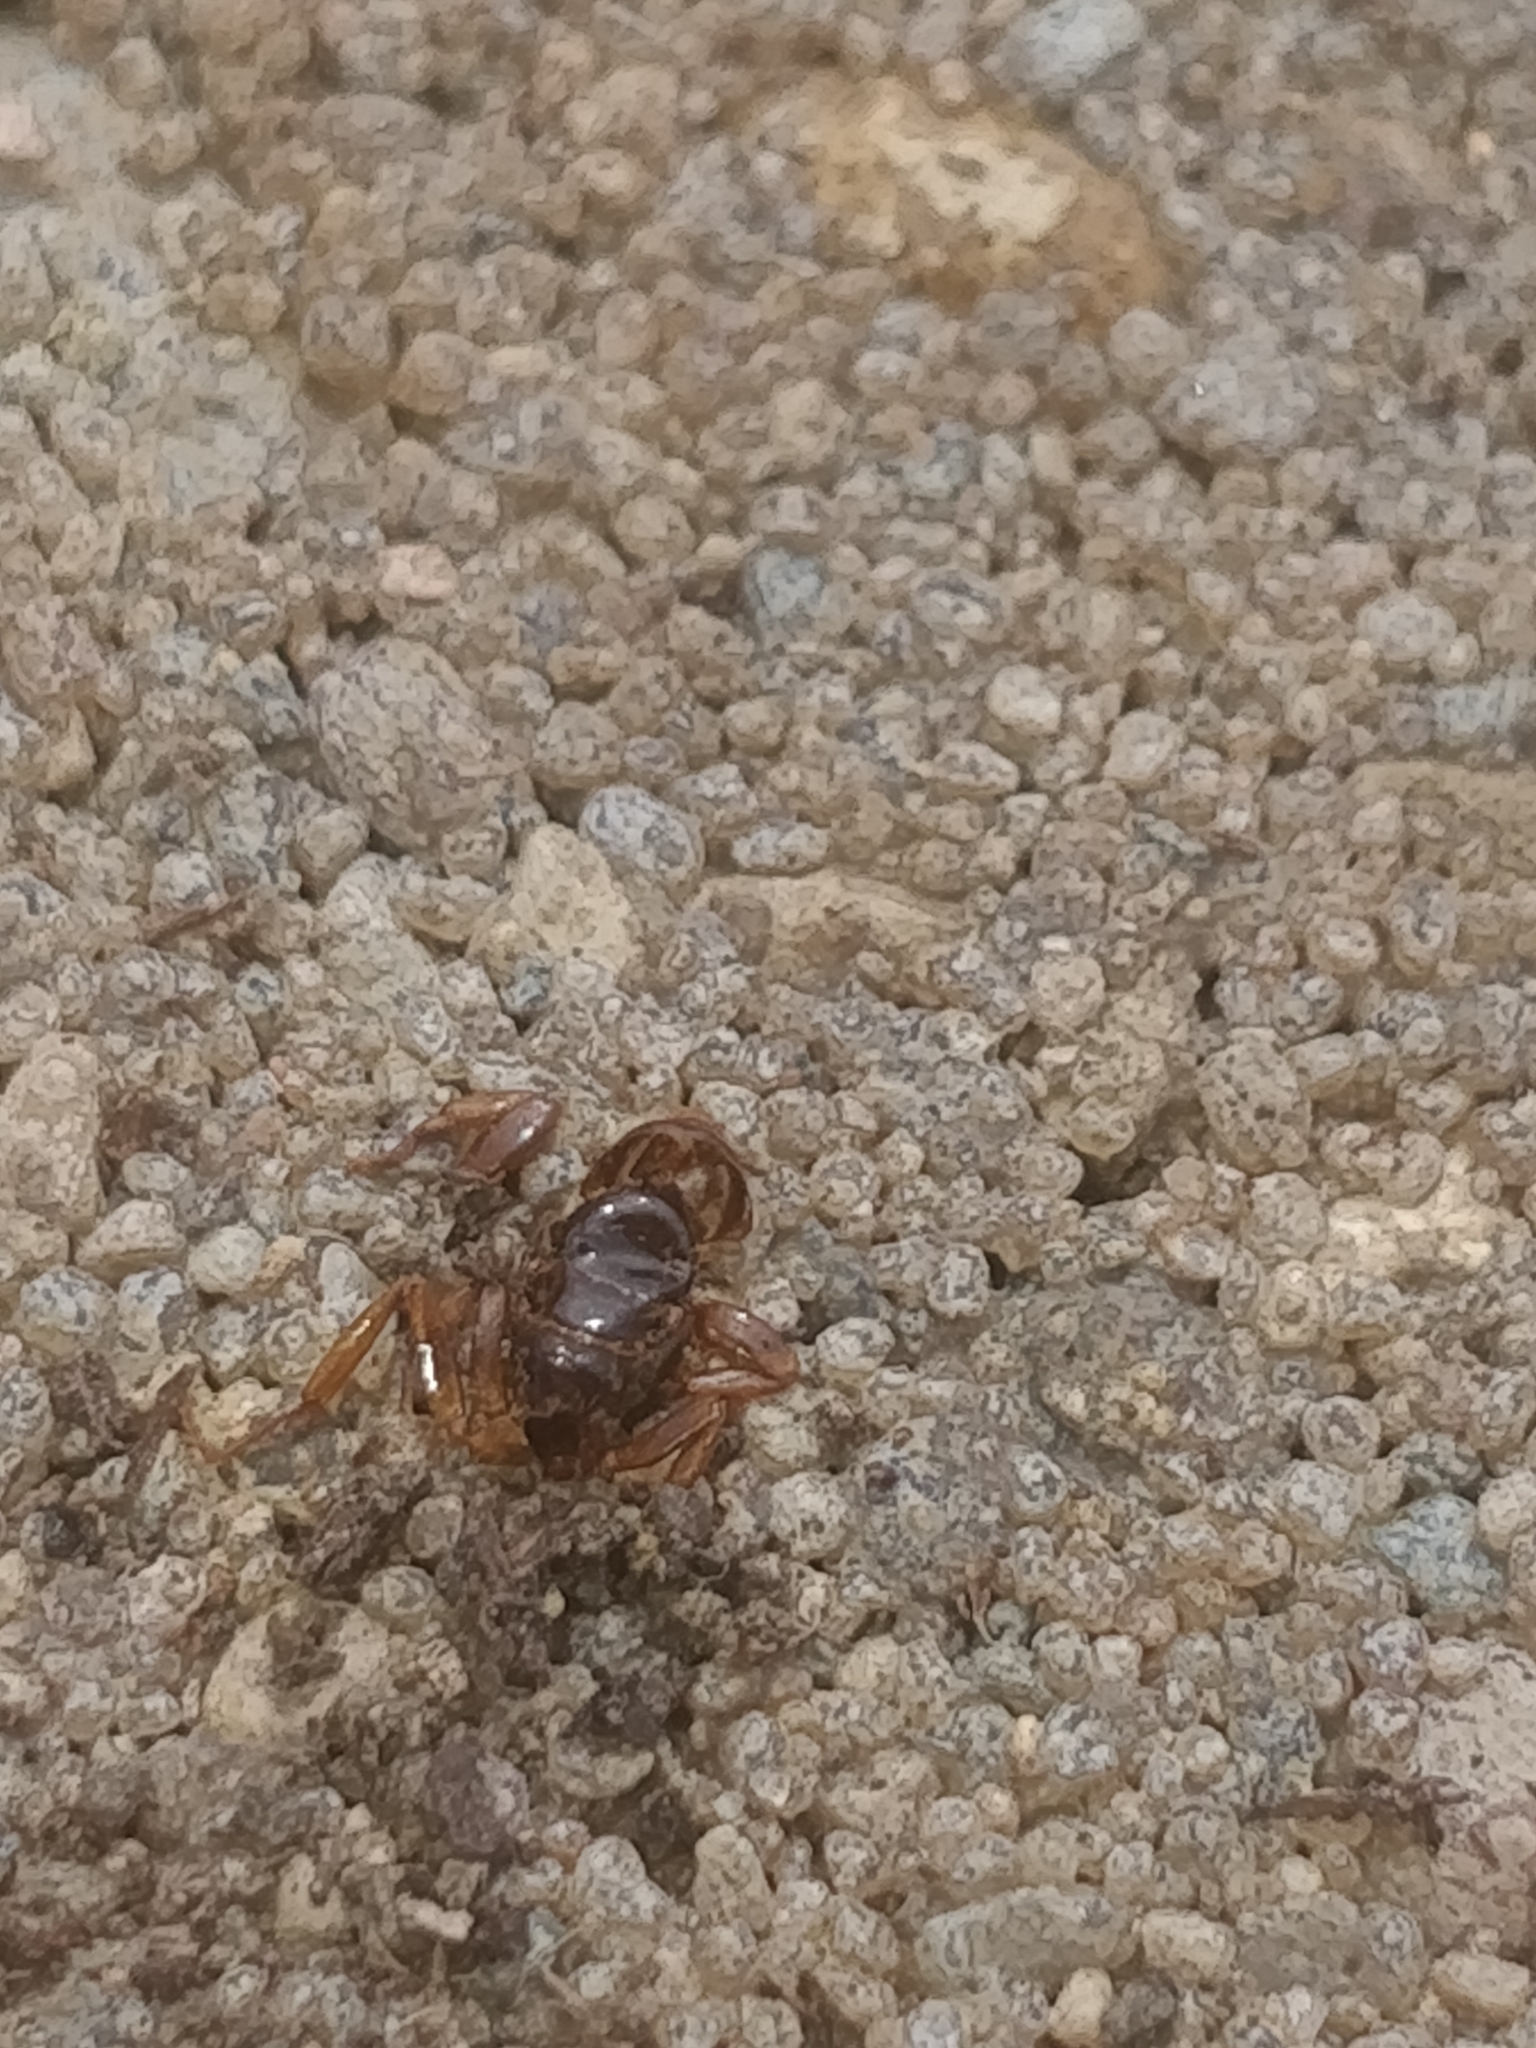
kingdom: Animalia
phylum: Arthropoda
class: Insecta
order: Hymenoptera
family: Formicidae
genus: Lasius
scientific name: Lasius claviger
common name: Common citronella ant
